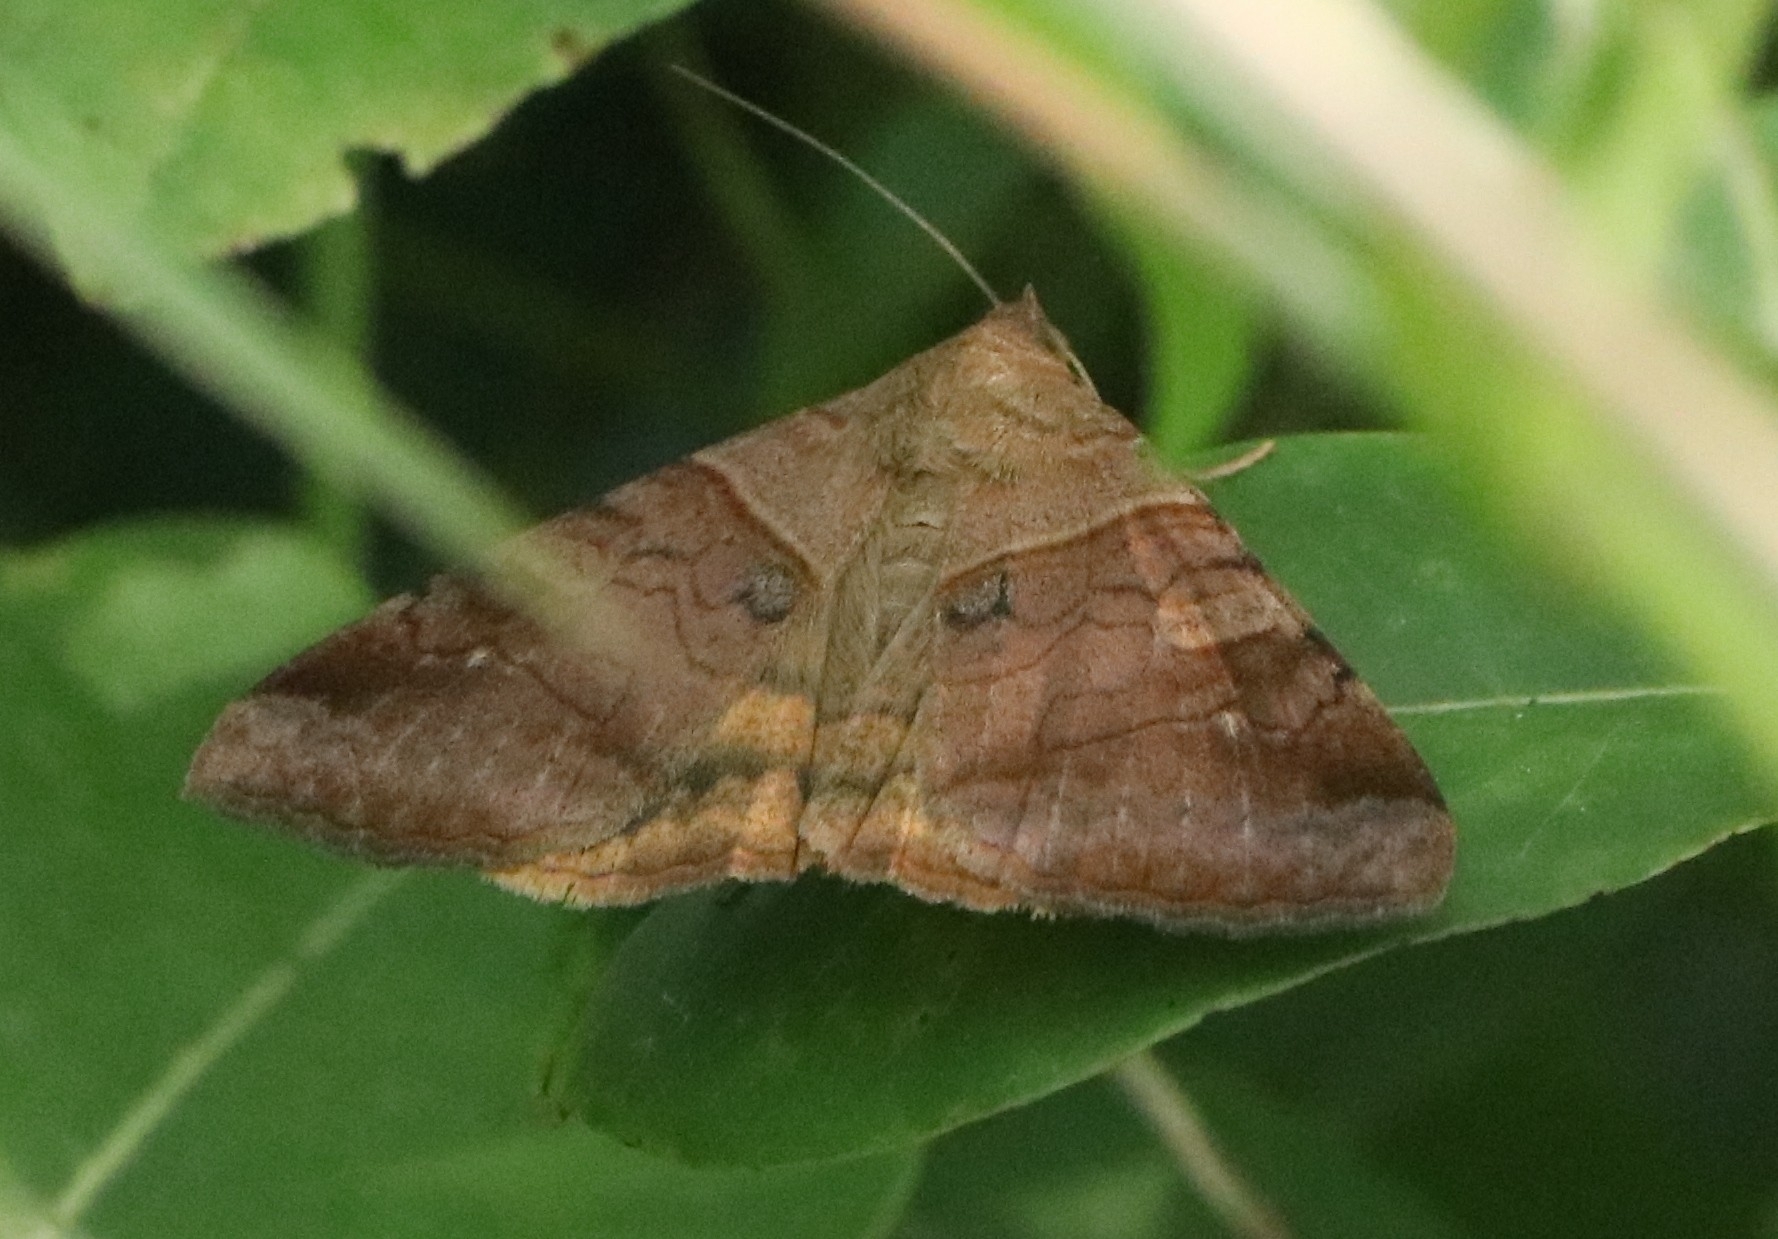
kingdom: Animalia
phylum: Arthropoda
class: Insecta
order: Lepidoptera
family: Erebidae
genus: Mocis
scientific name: Mocis undata
